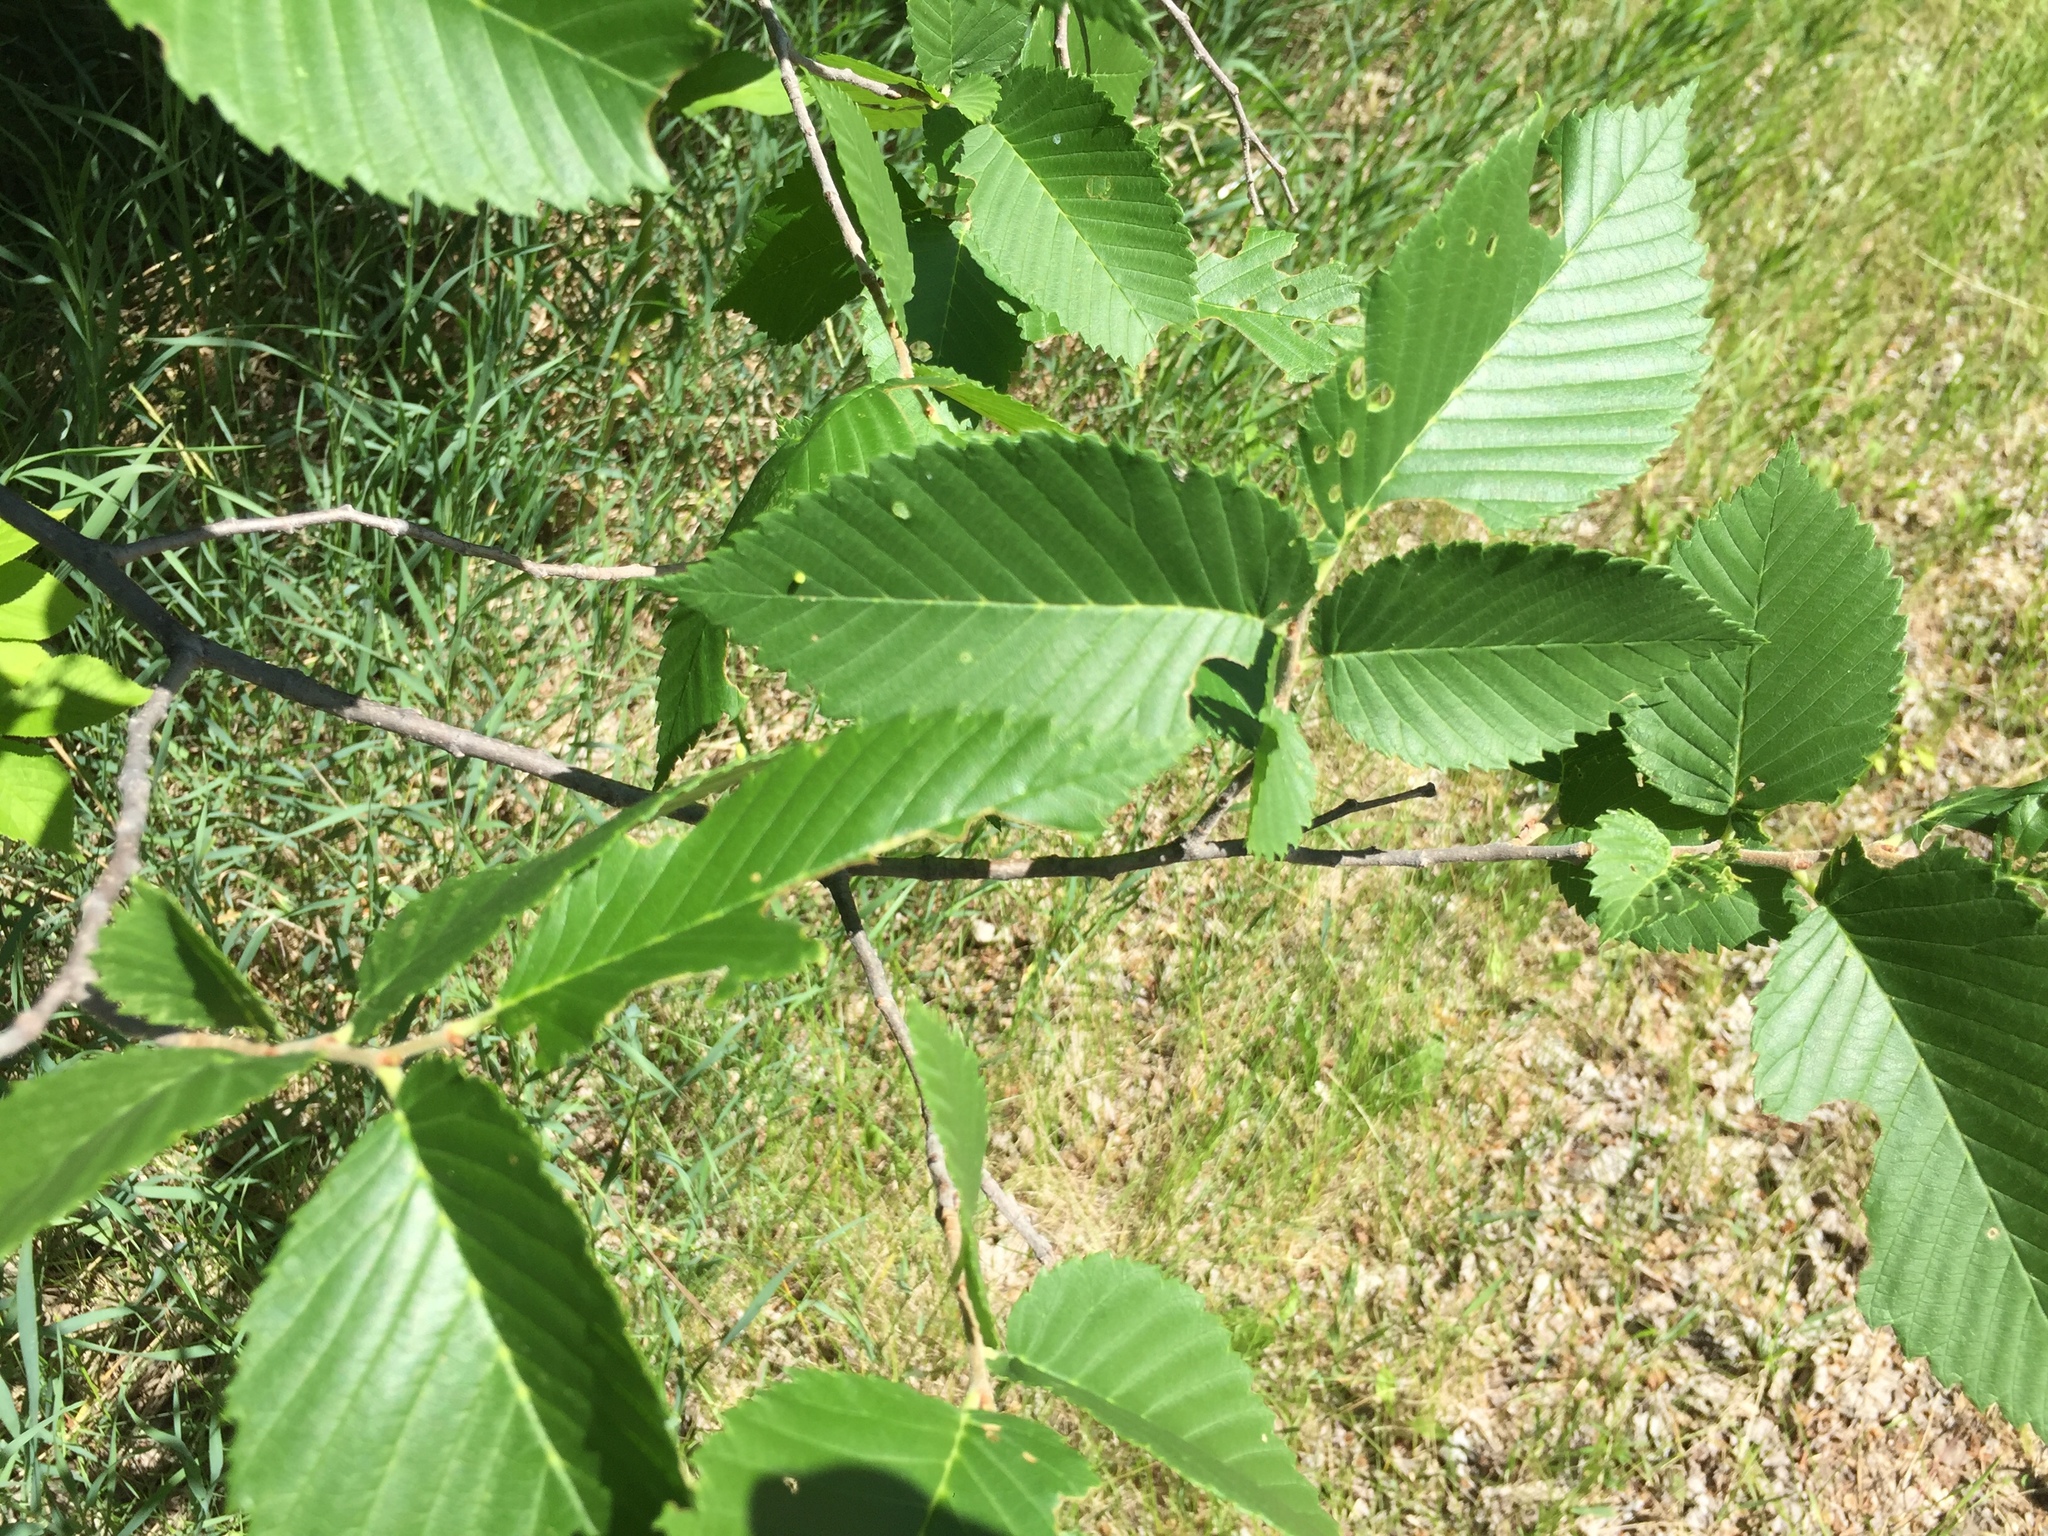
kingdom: Plantae
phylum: Tracheophyta
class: Magnoliopsida
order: Rosales
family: Ulmaceae
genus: Ulmus
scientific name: Ulmus americana
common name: American elm
